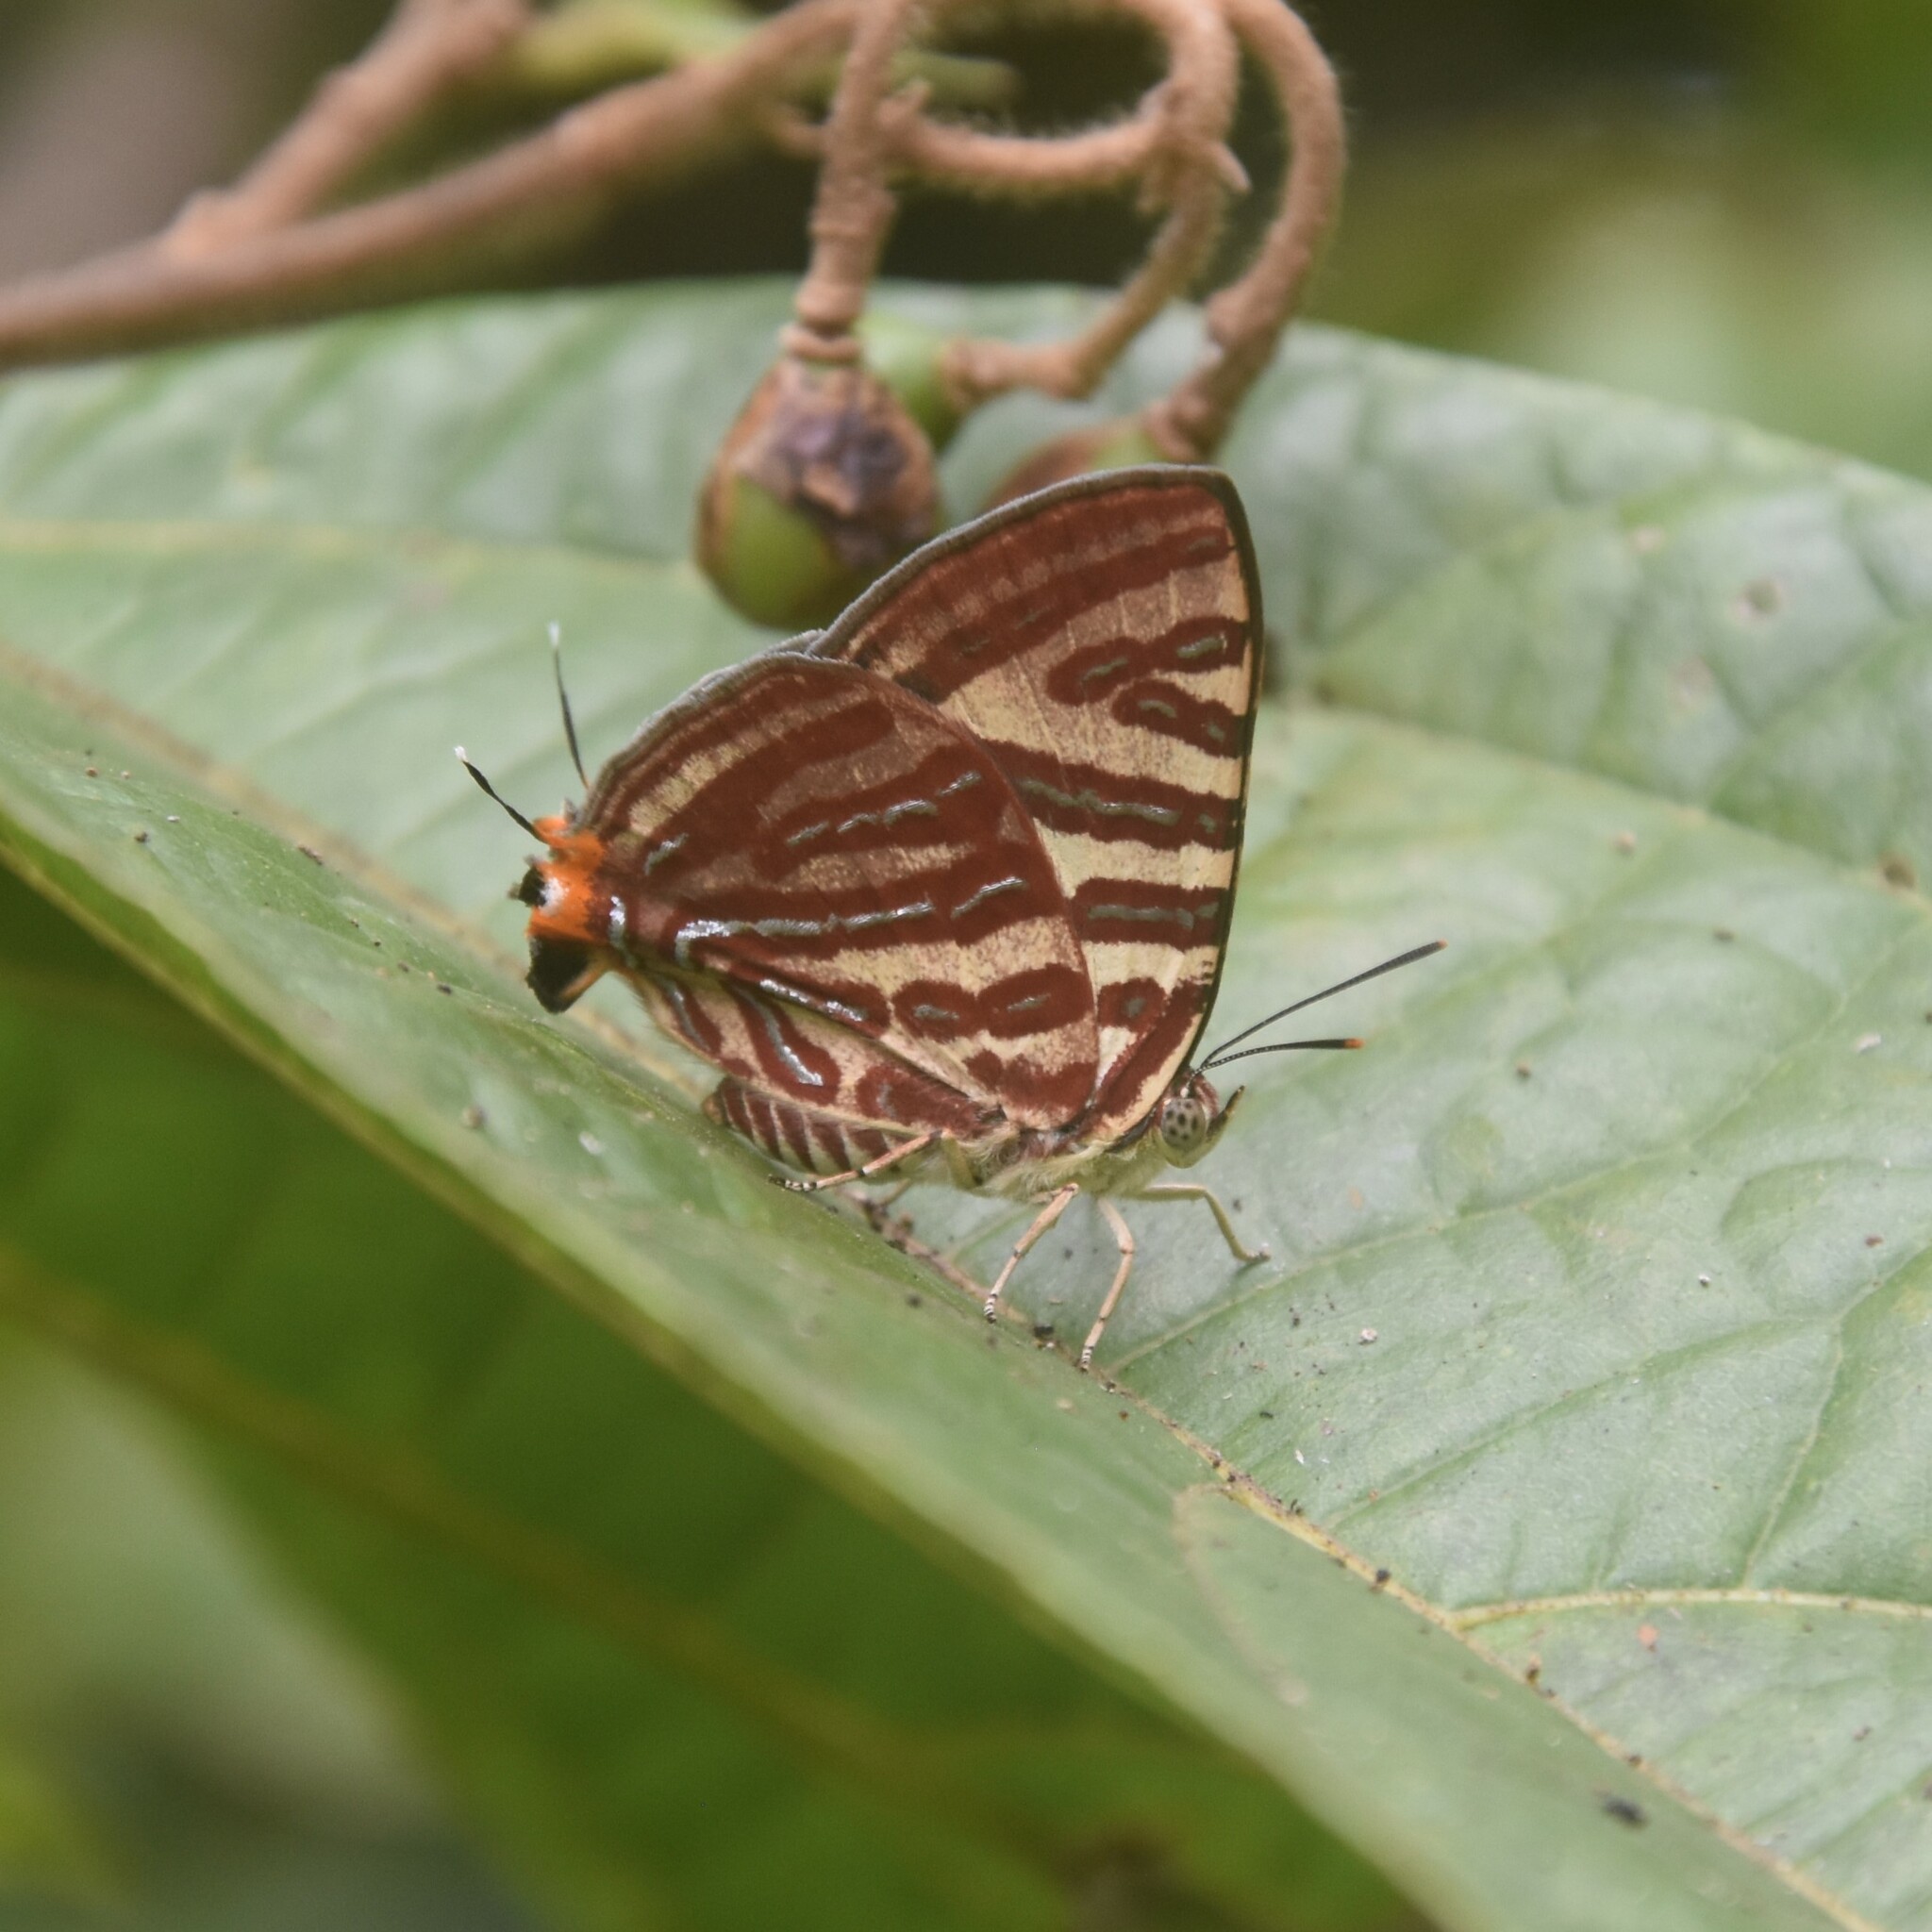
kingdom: Animalia
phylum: Arthropoda
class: Insecta
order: Lepidoptera
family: Lycaenidae
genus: Cigaritis
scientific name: Cigaritis lohita
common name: Long-banded silverline
